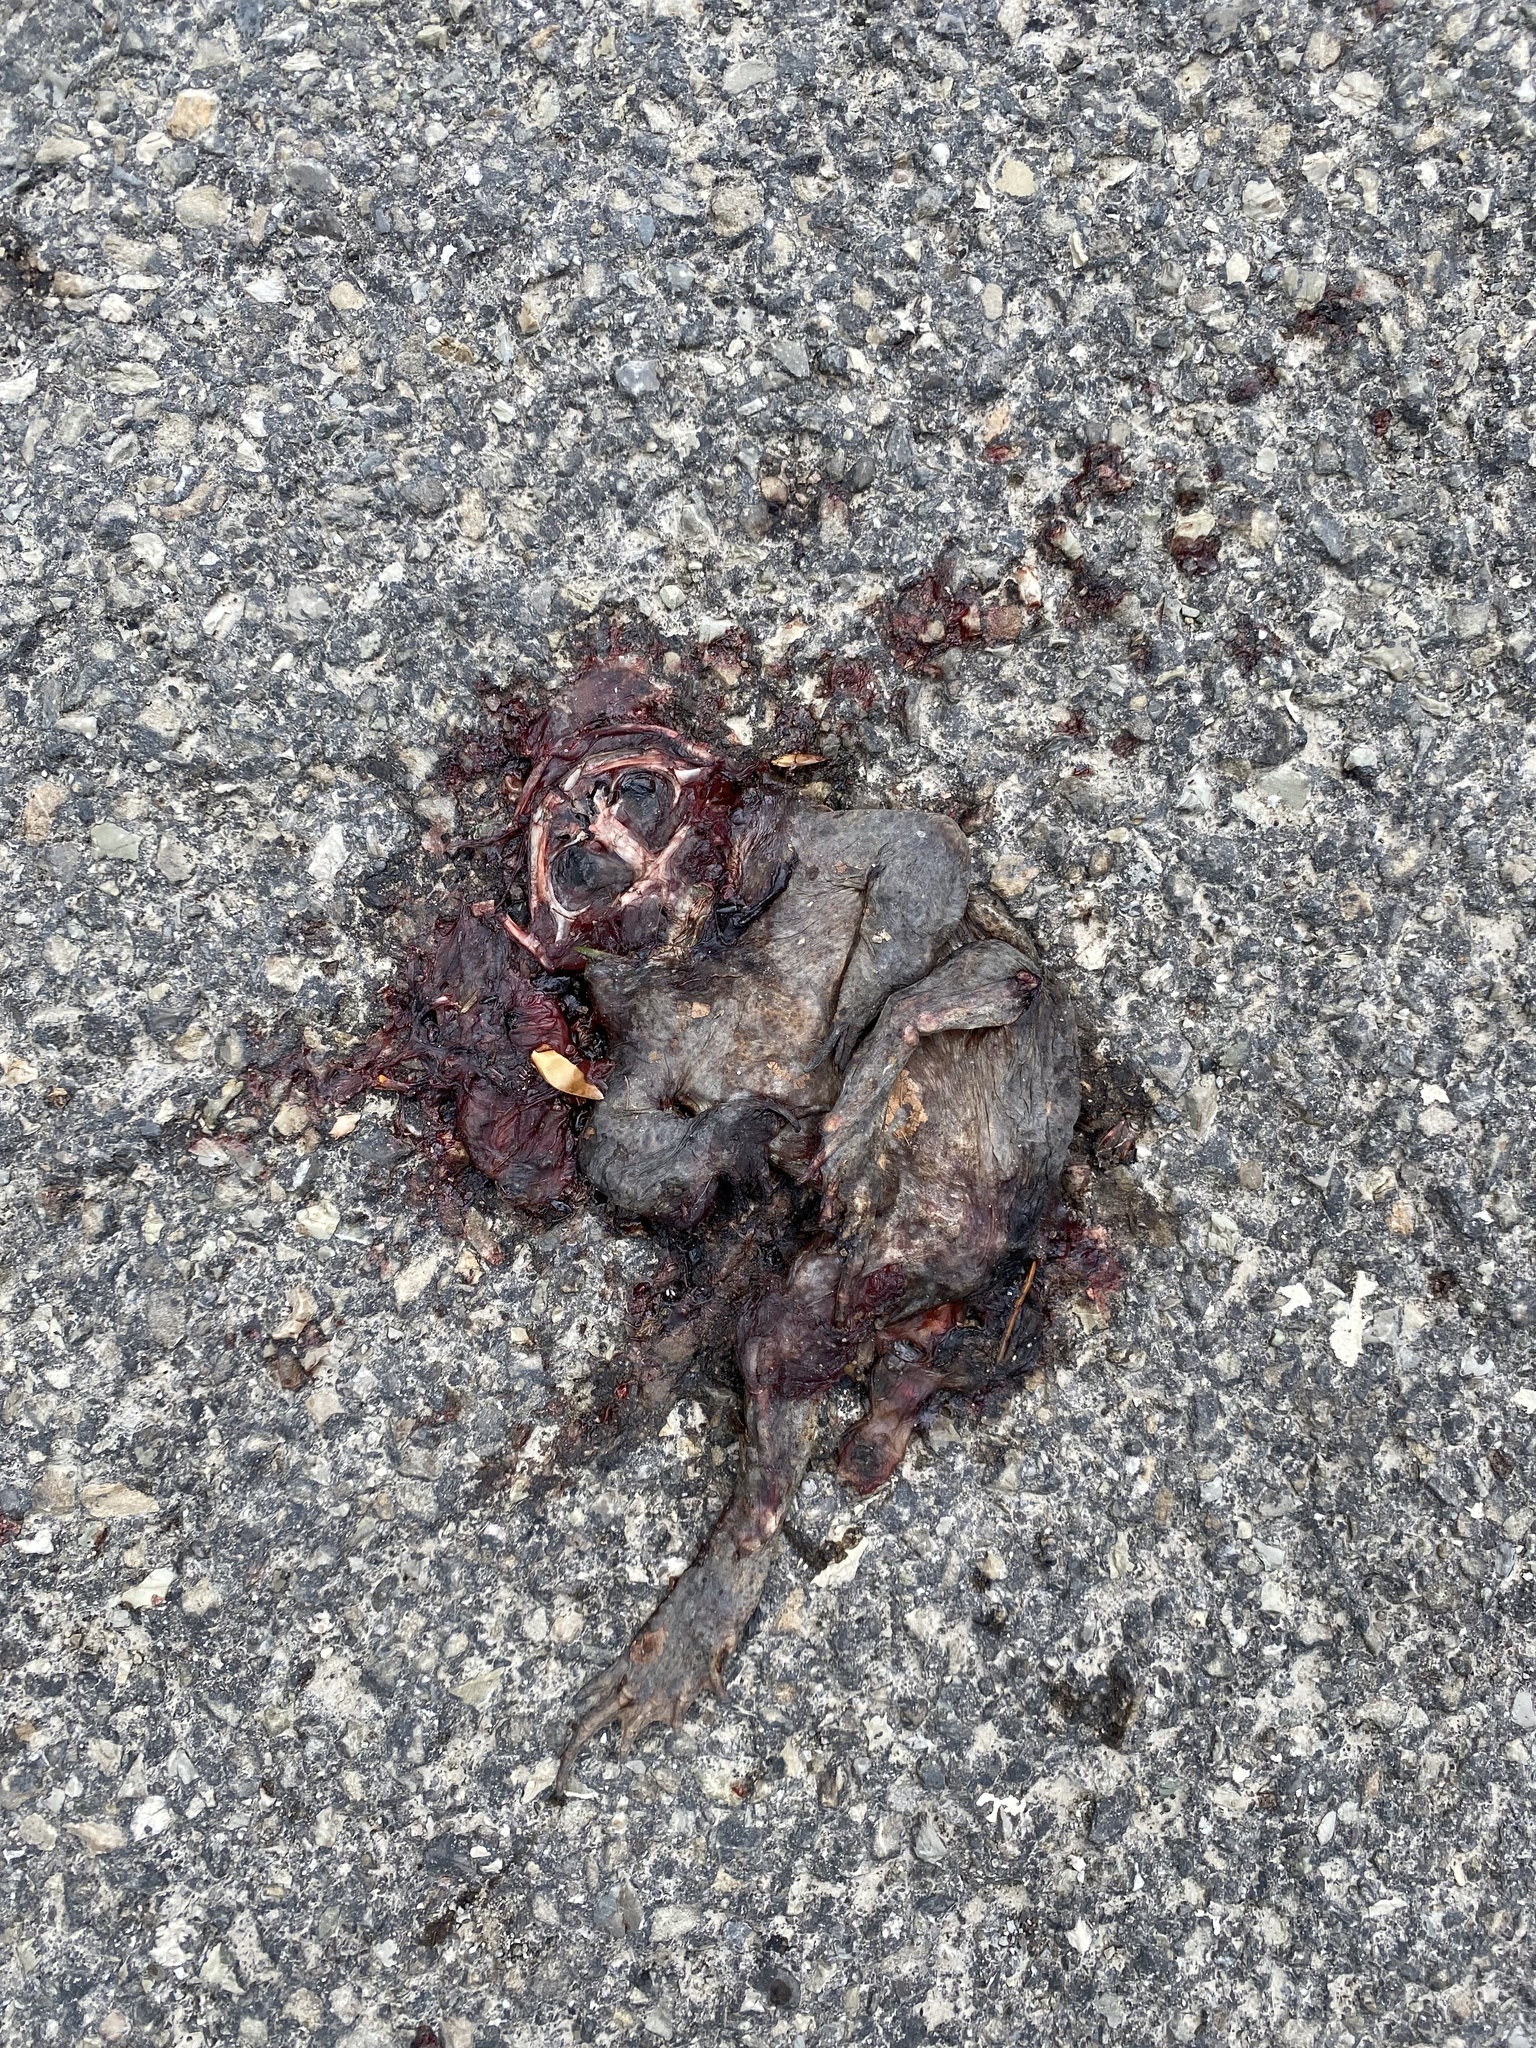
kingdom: Animalia
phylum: Chordata
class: Amphibia
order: Anura
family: Bufonidae
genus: Bufo
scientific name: Bufo bufo
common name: Common toad
